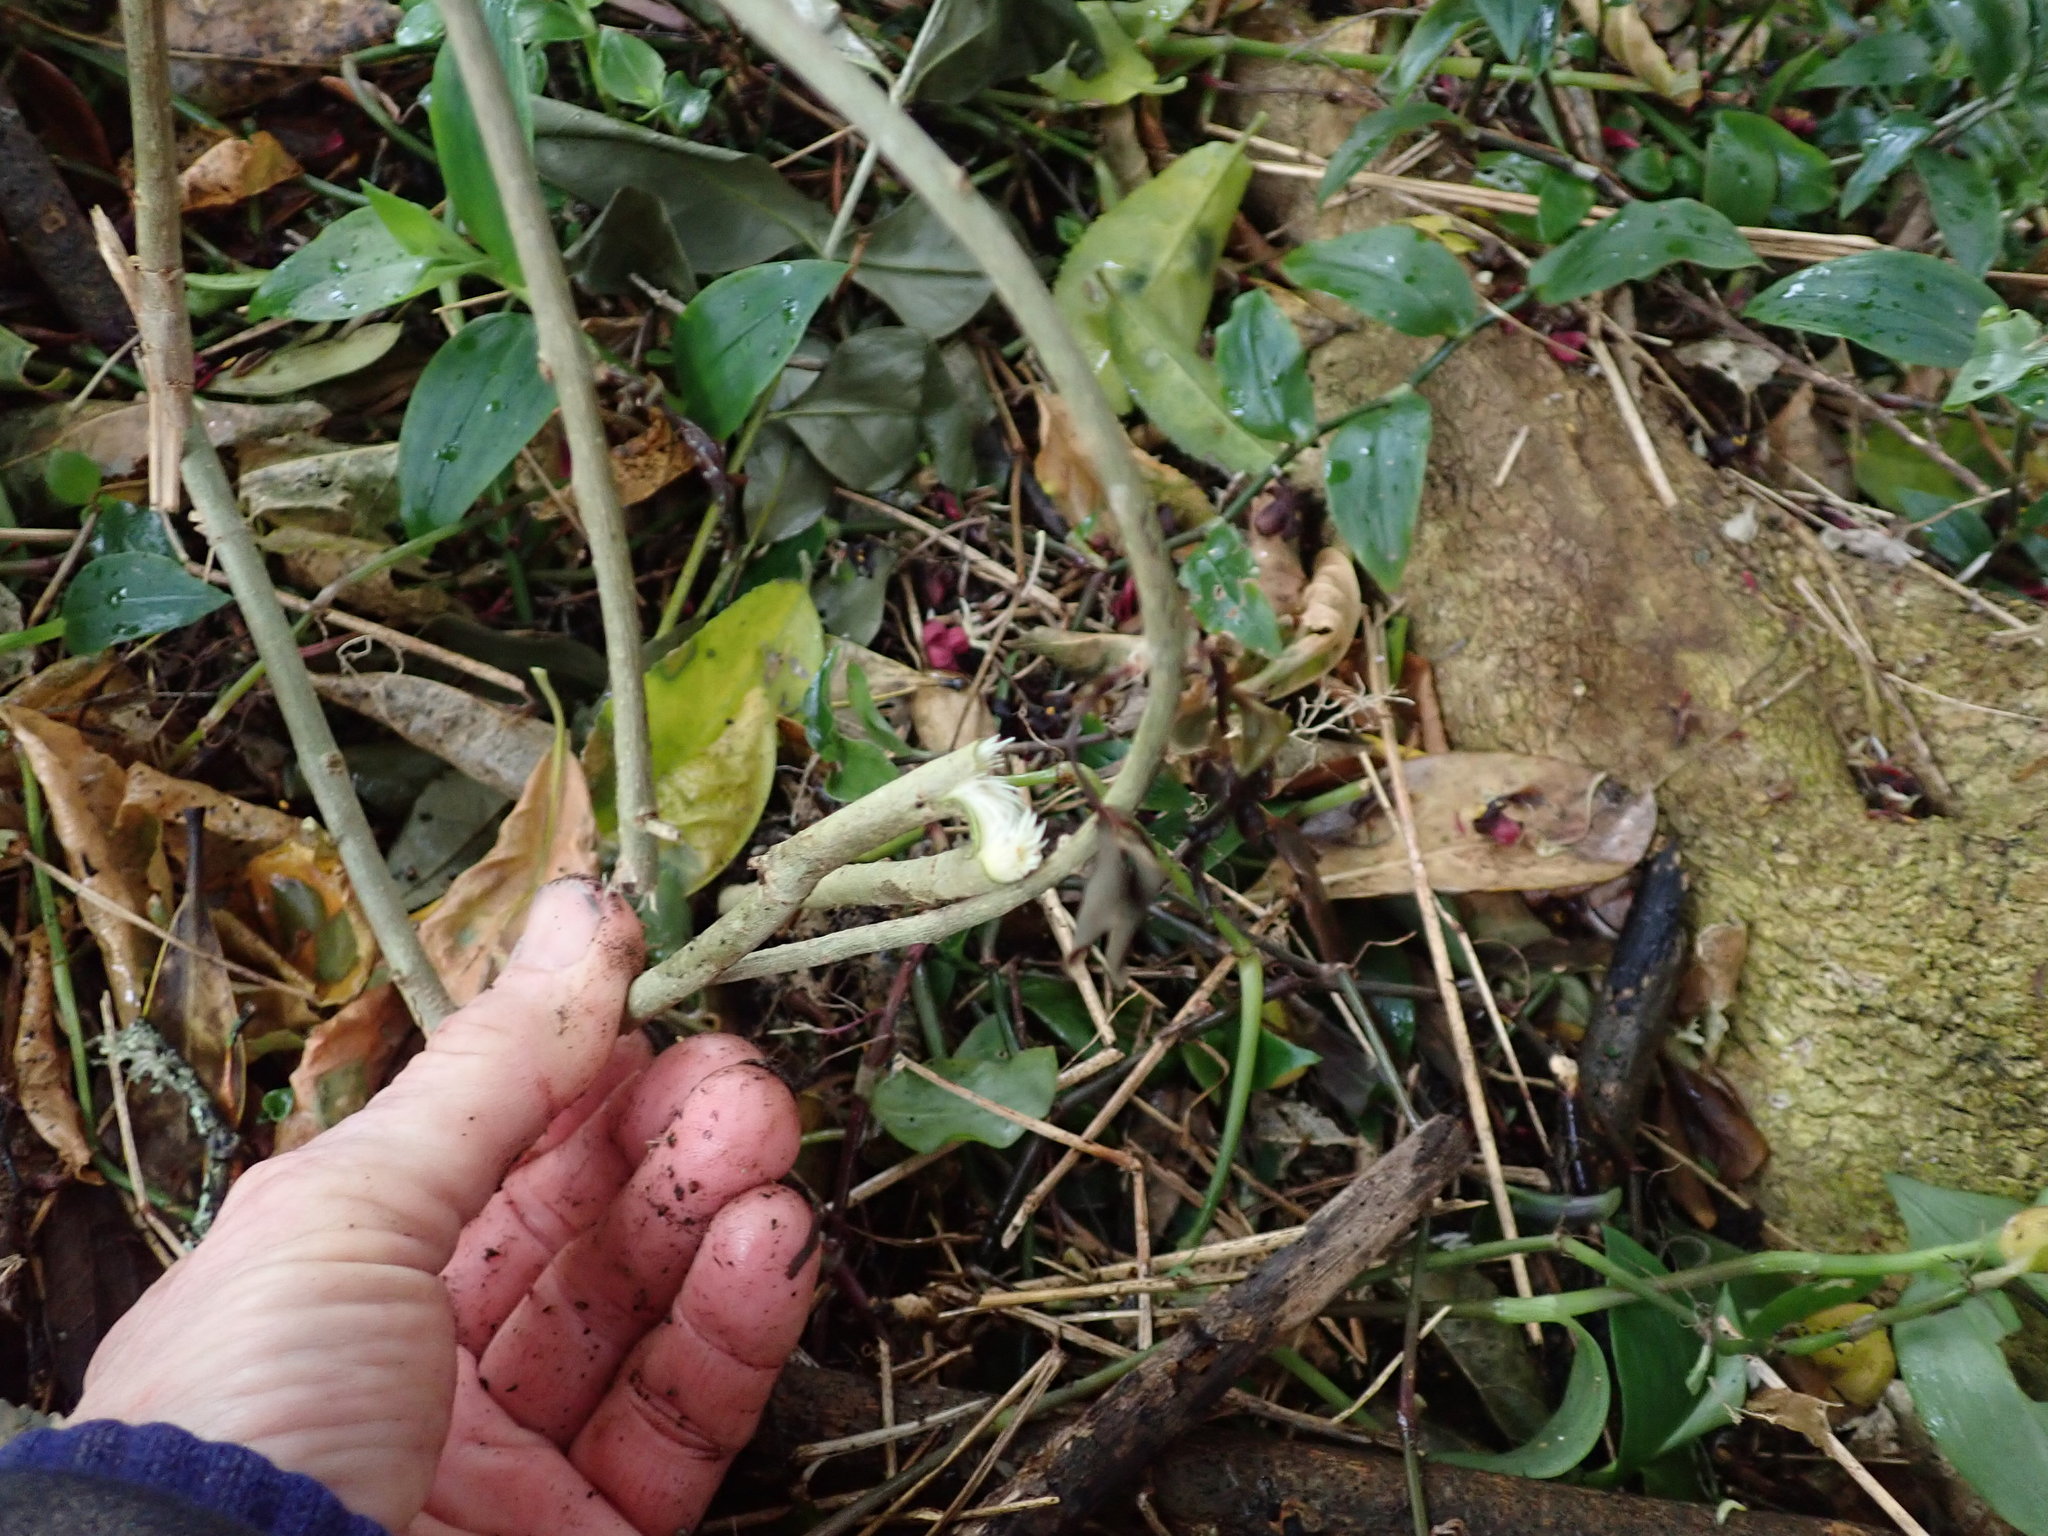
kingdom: Plantae
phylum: Tracheophyta
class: Magnoliopsida
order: Lamiales
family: Oleaceae
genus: Ligustrum
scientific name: Ligustrum lucidum
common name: Glossy privet
